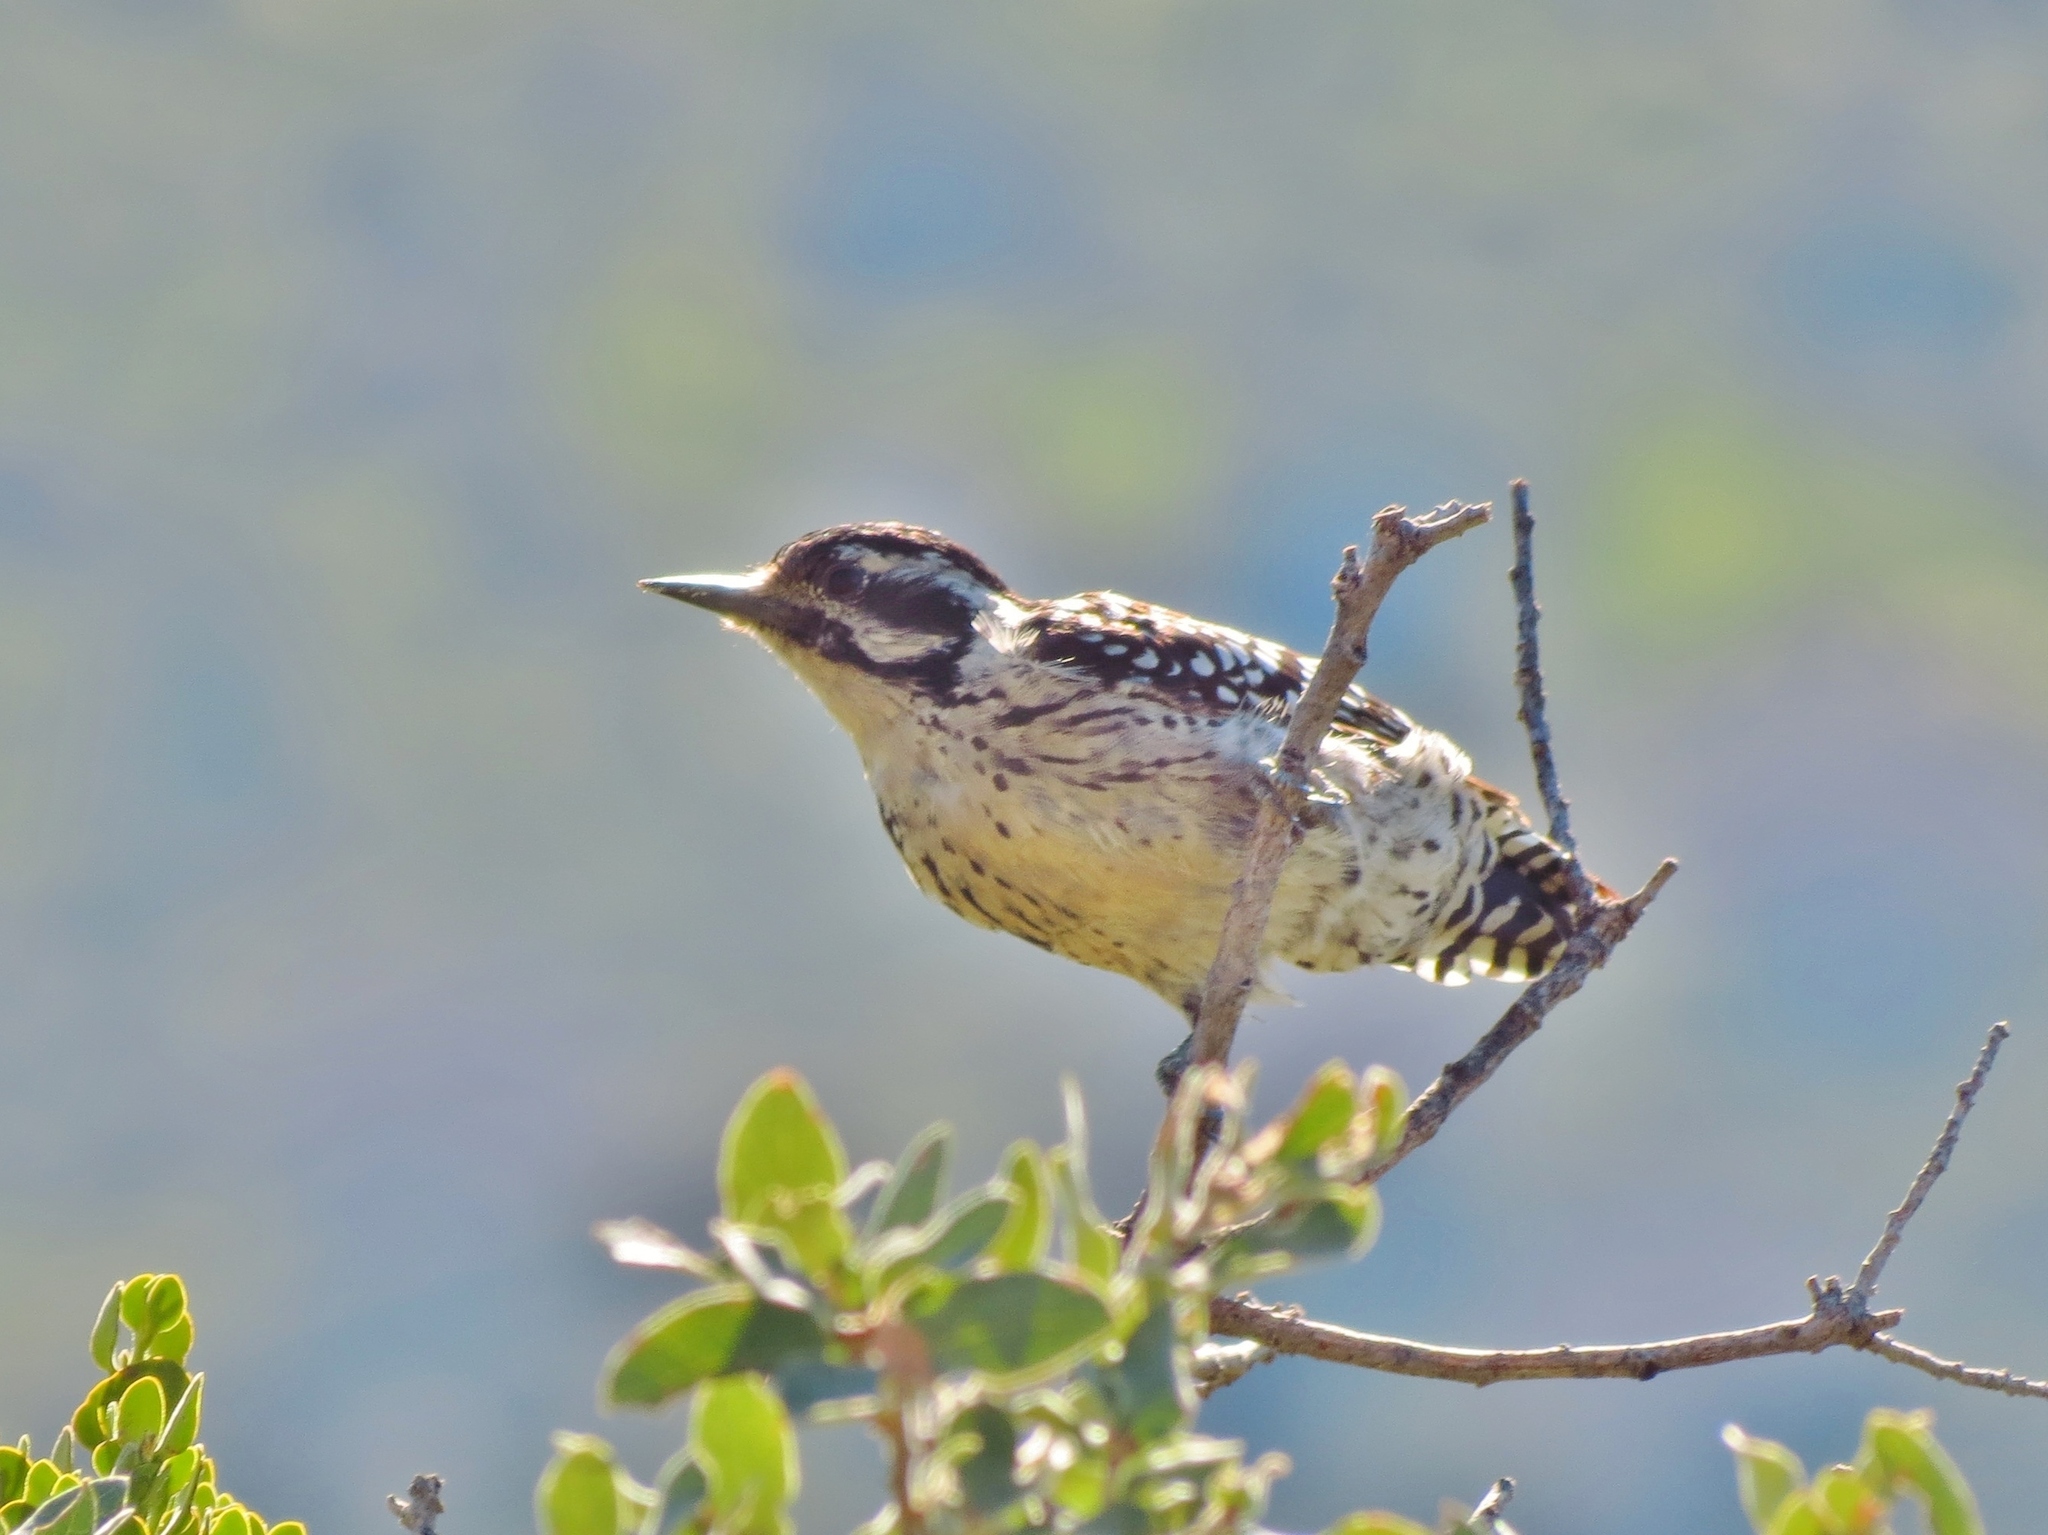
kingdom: Animalia
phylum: Chordata
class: Aves
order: Piciformes
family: Picidae
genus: Dryobates
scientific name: Dryobates scalaris
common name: Ladder-backed woodpecker
